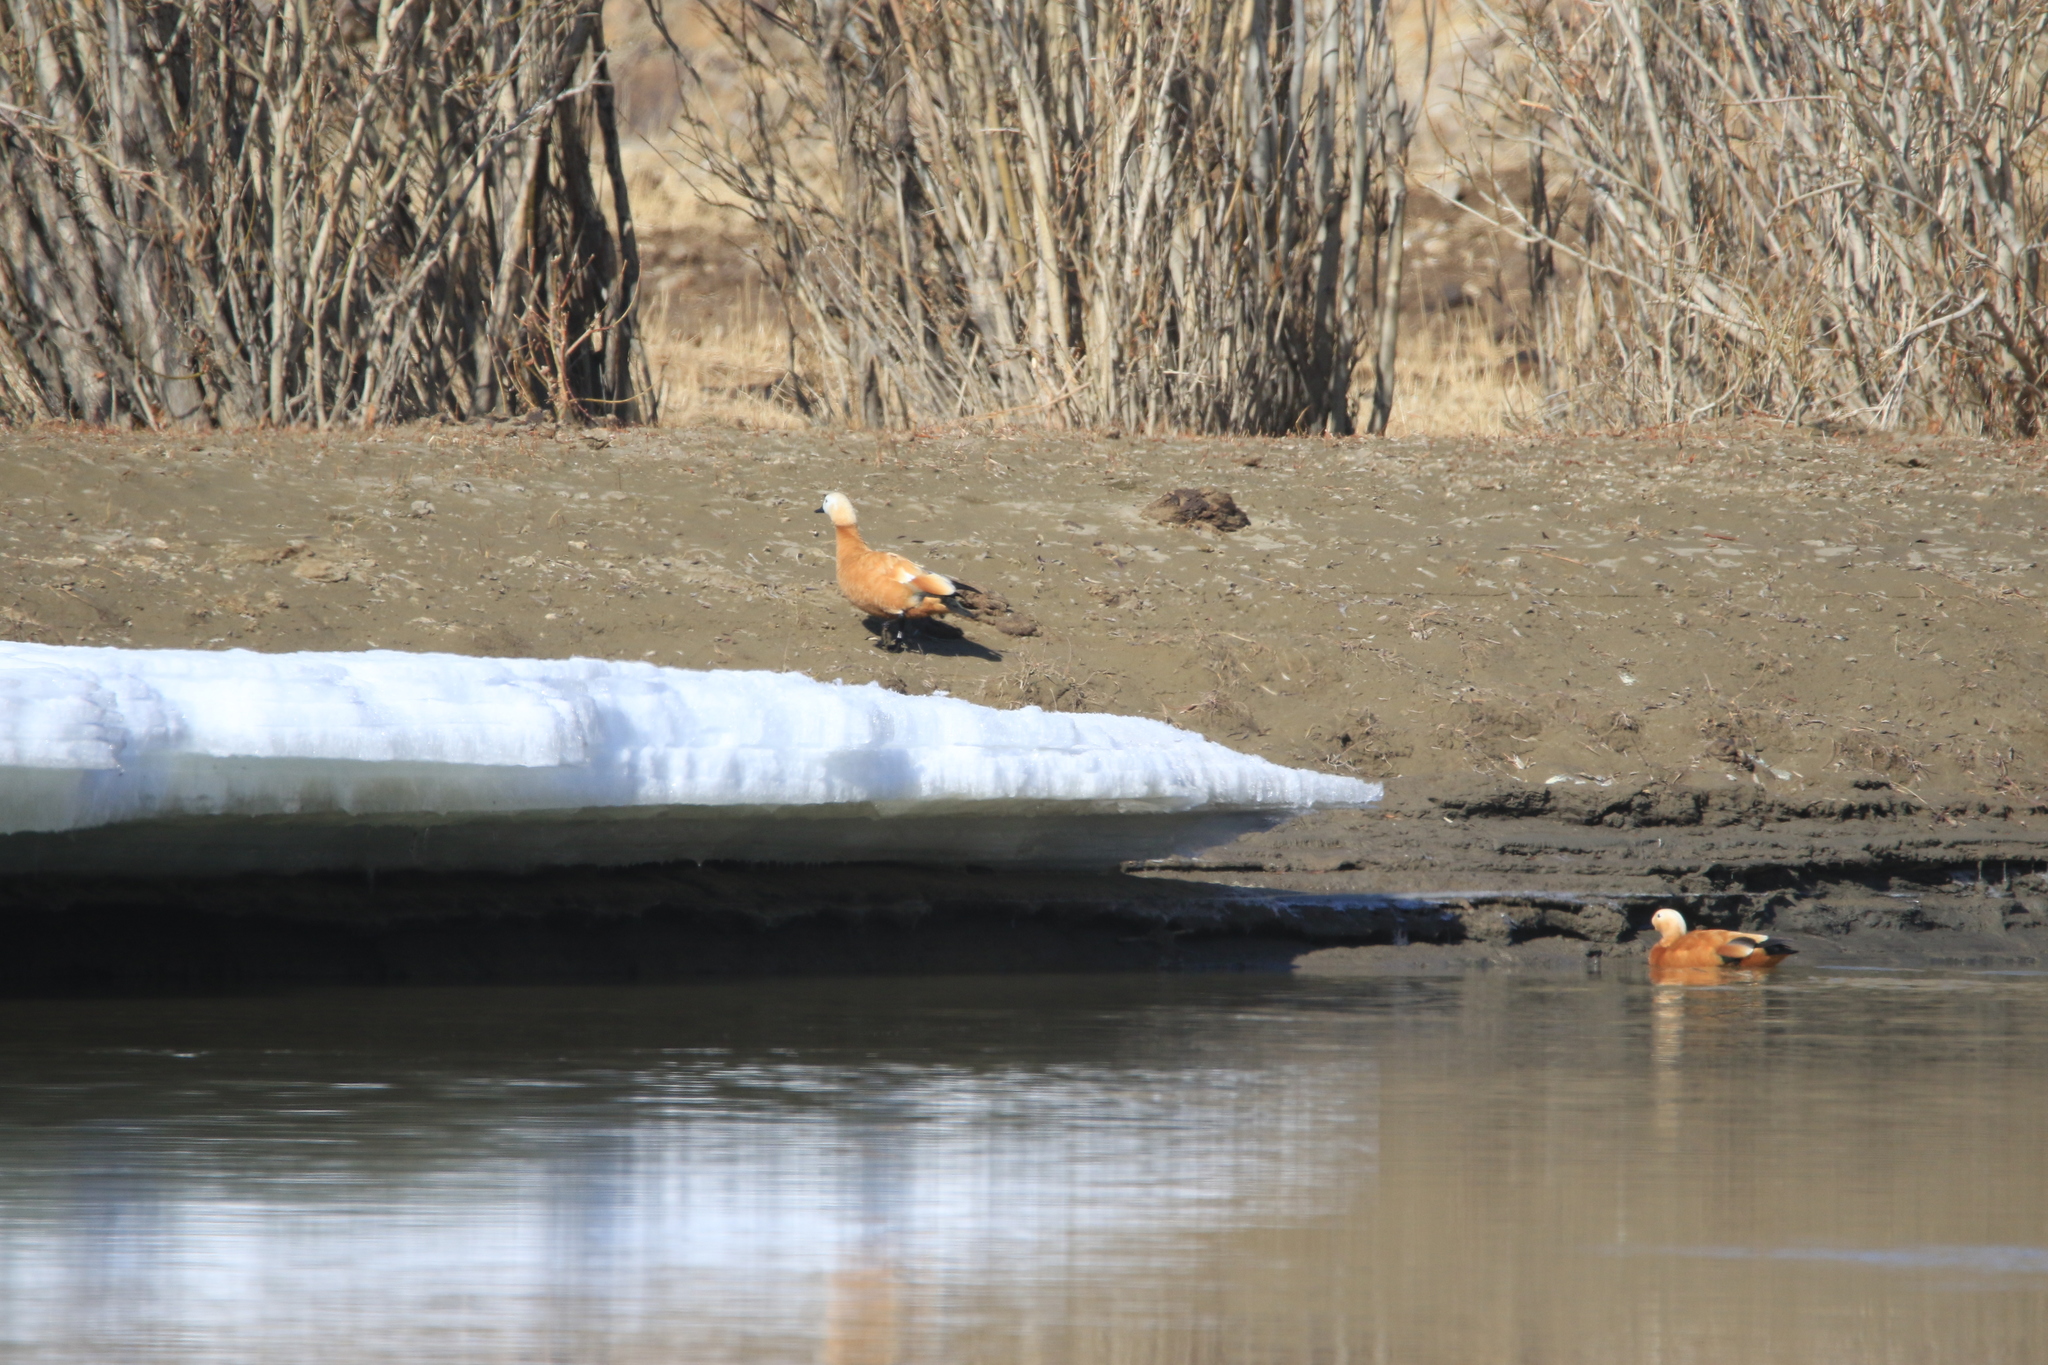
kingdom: Animalia
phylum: Chordata
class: Aves
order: Anseriformes
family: Anatidae
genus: Tadorna
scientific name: Tadorna ferruginea
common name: Ruddy shelduck
